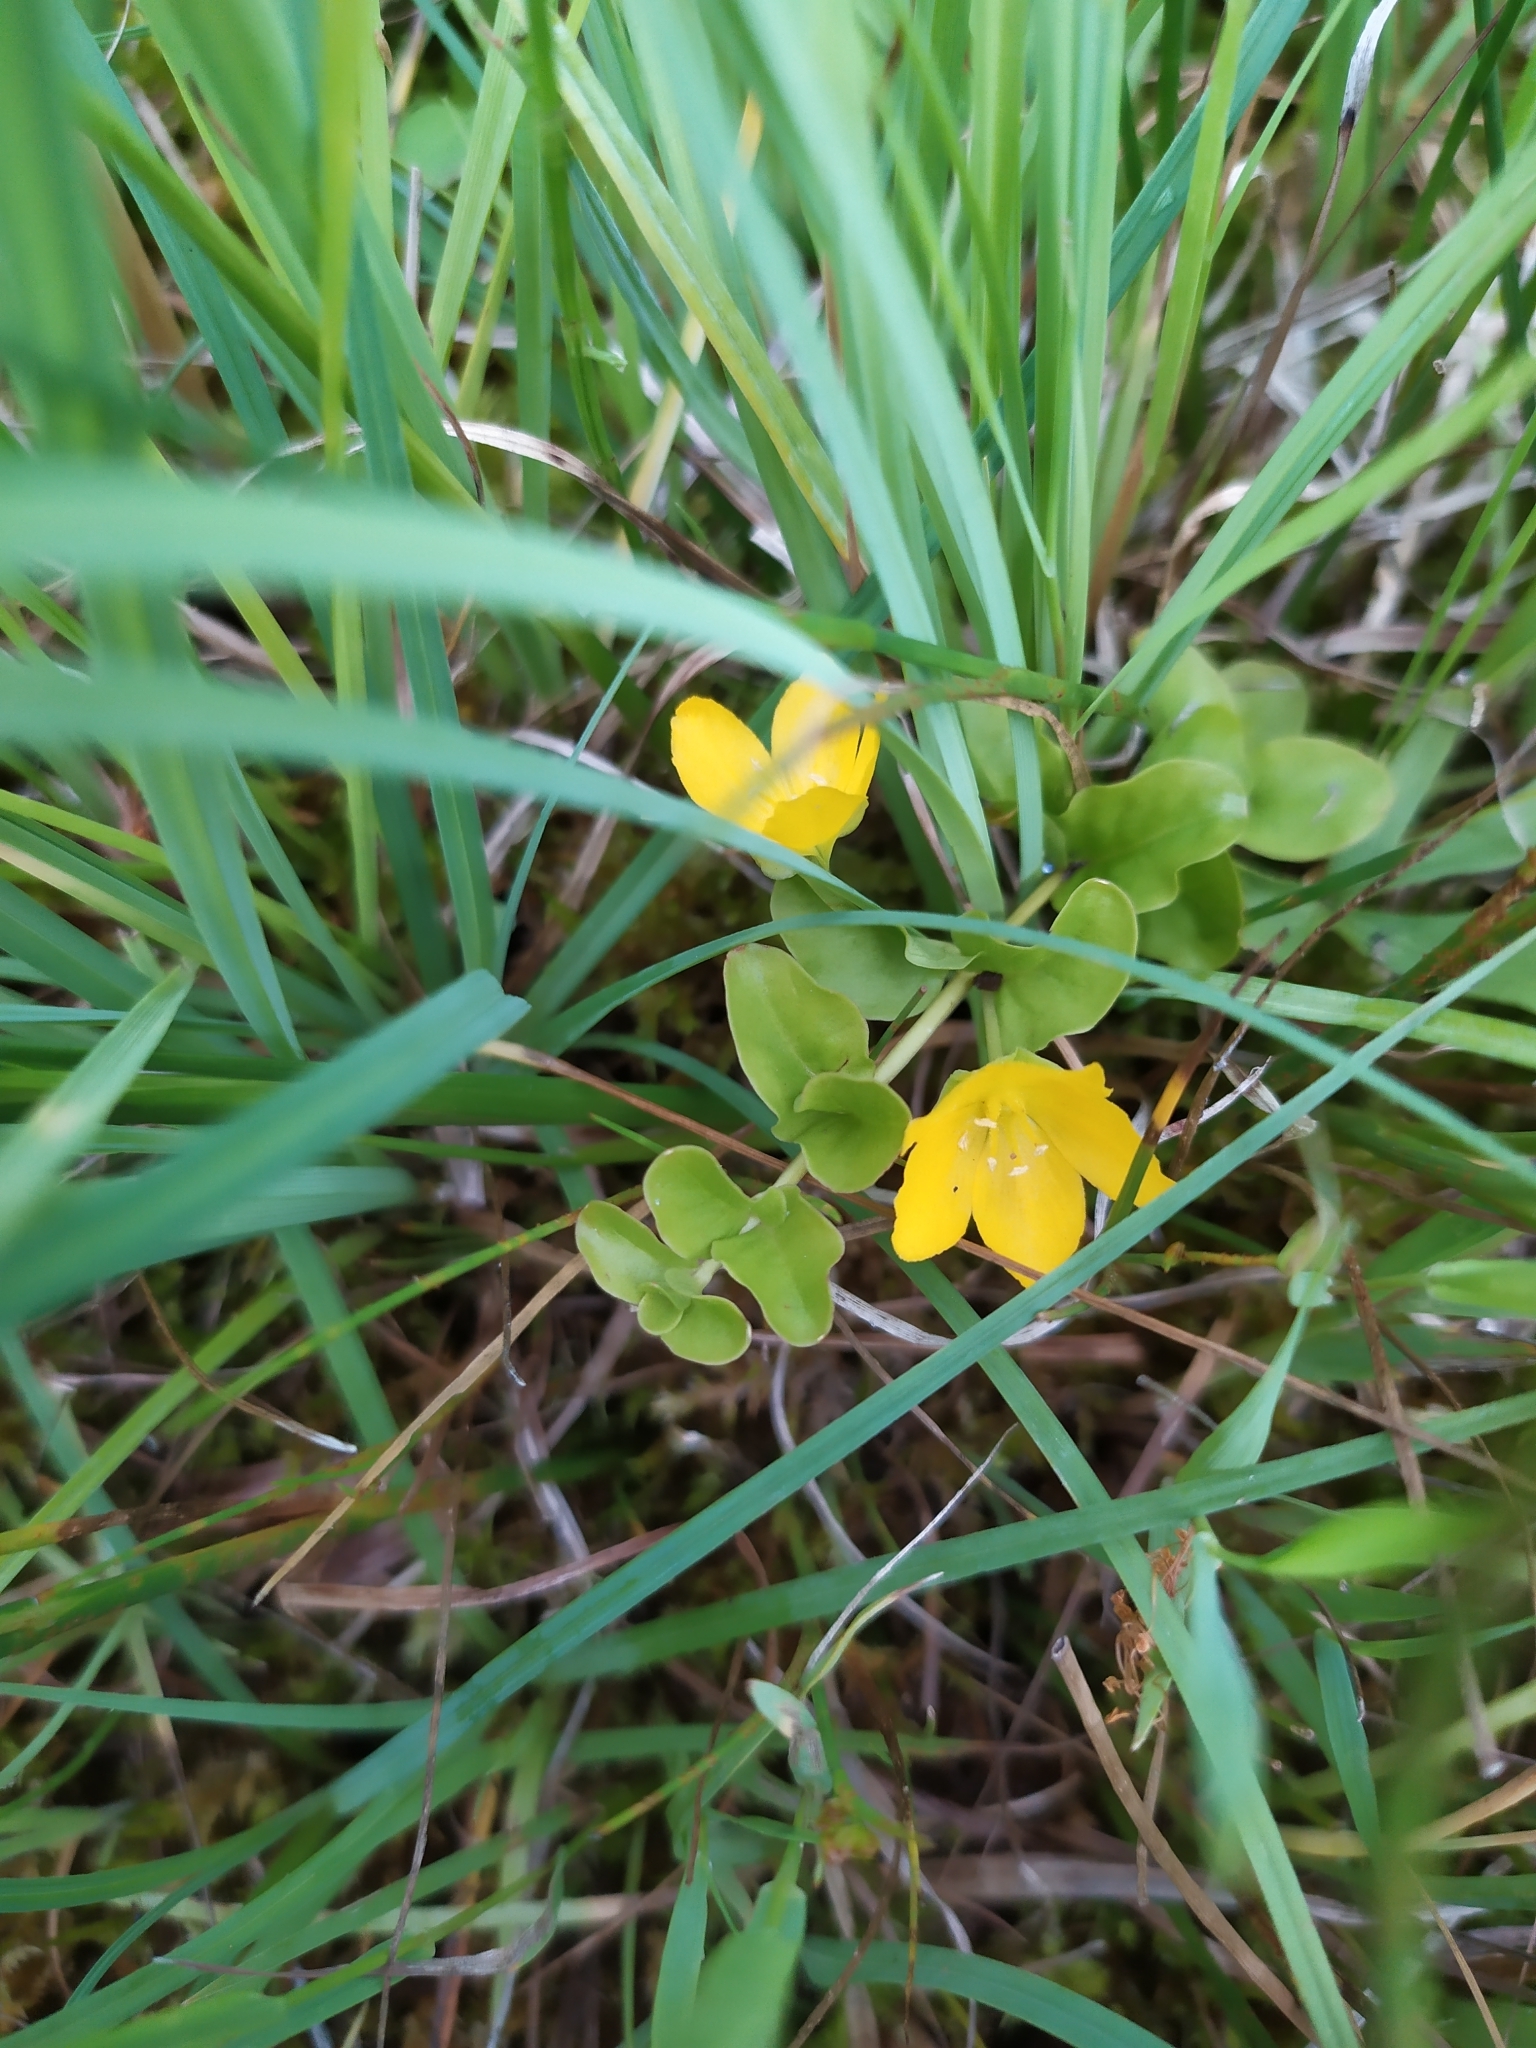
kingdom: Plantae
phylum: Tracheophyta
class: Magnoliopsida
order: Ericales
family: Primulaceae
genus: Lysimachia
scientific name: Lysimachia nummularia
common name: Moneywort
